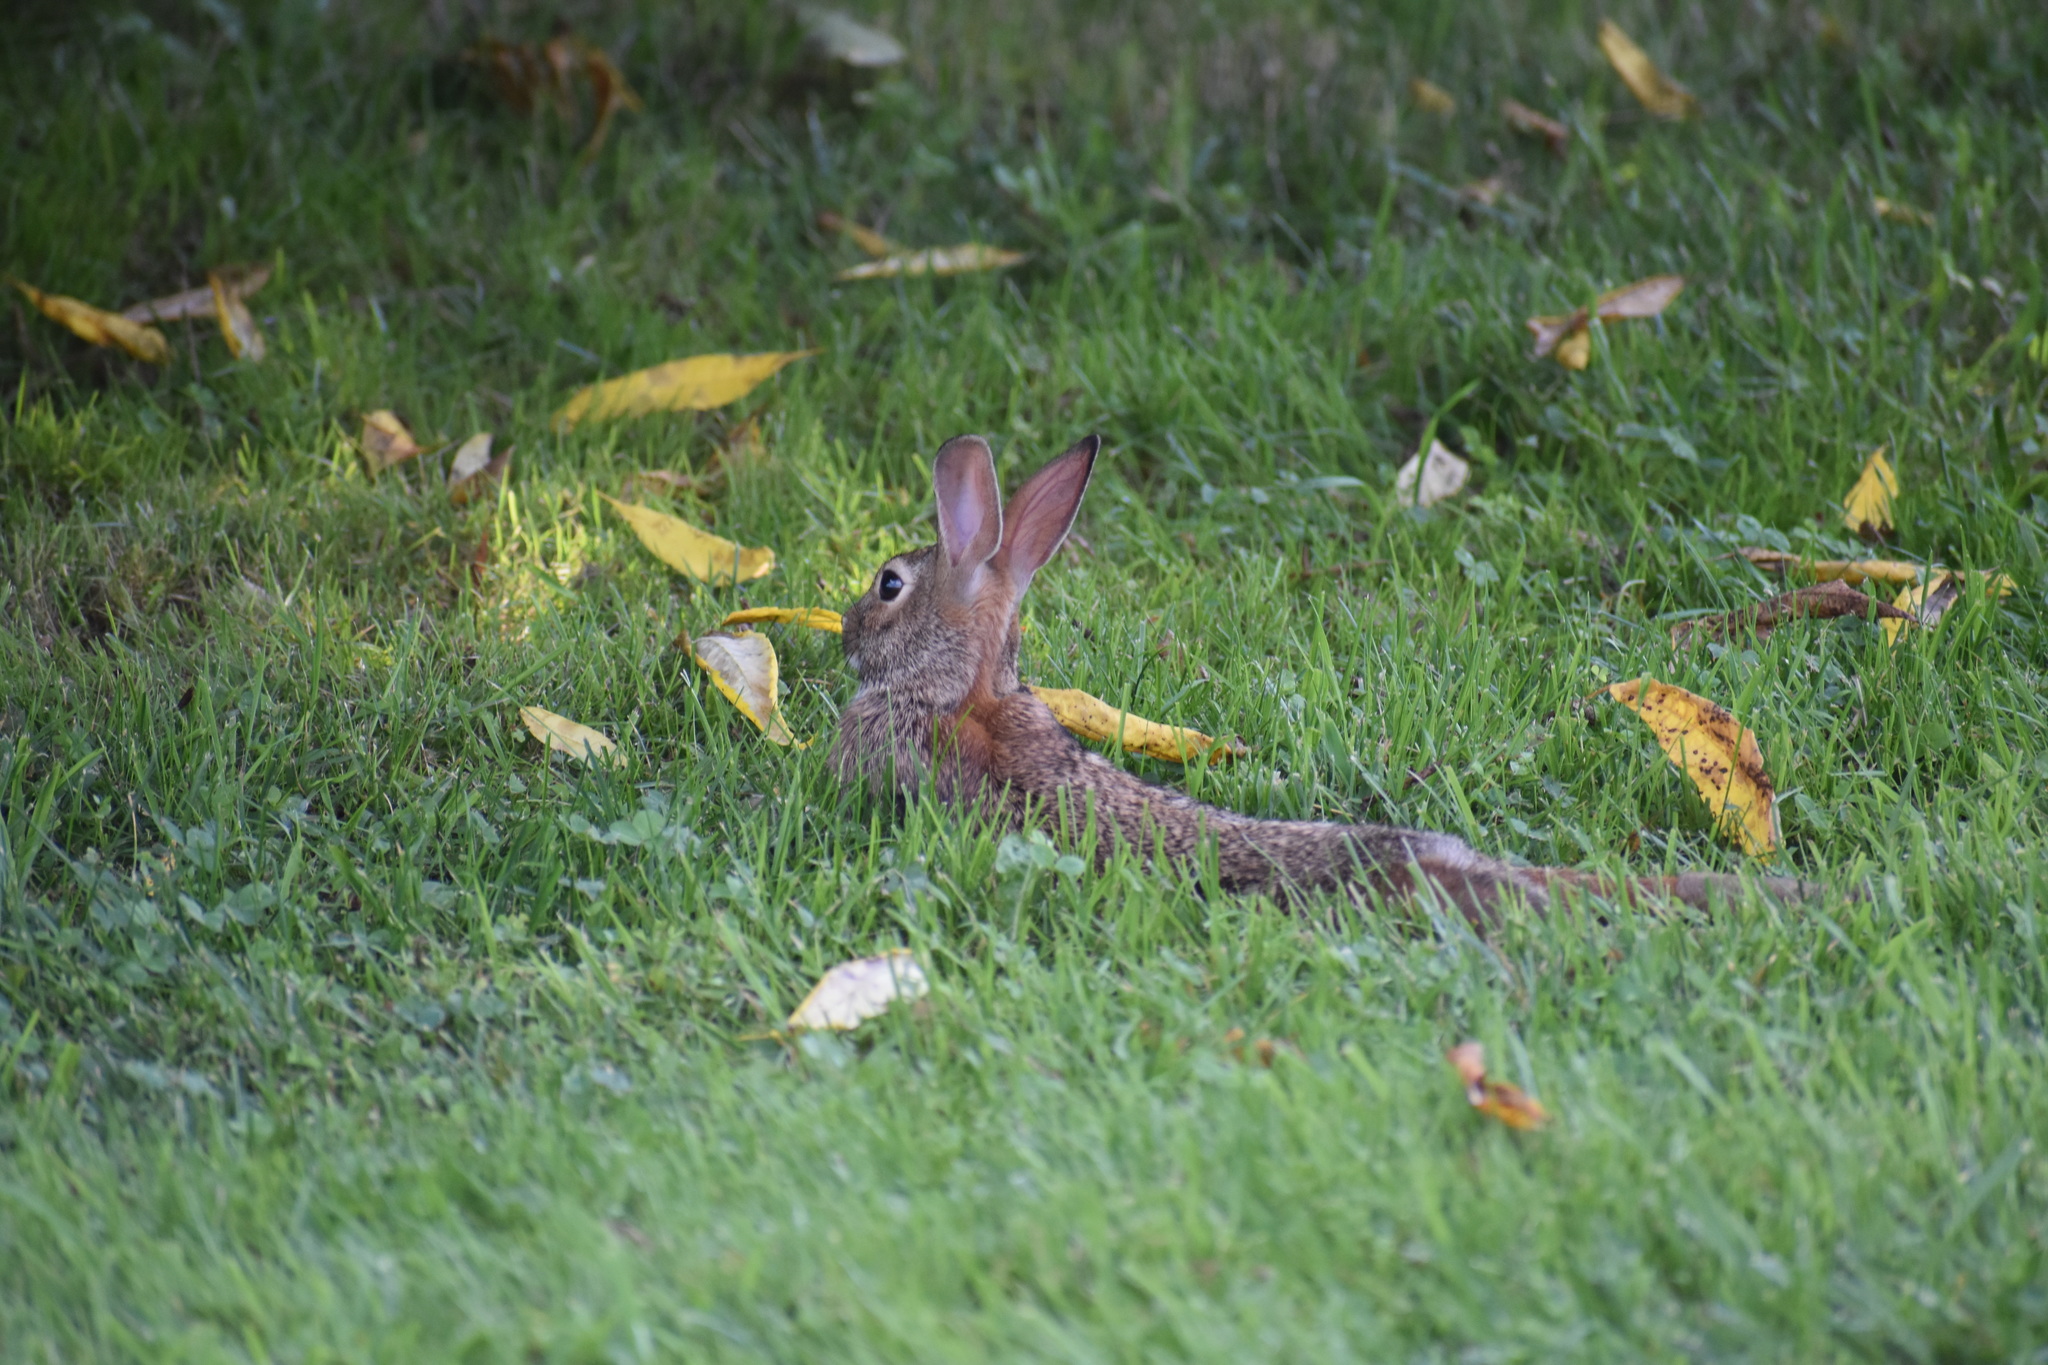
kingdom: Animalia
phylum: Chordata
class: Mammalia
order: Lagomorpha
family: Leporidae
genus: Sylvilagus
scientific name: Sylvilagus floridanus
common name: Eastern cottontail
